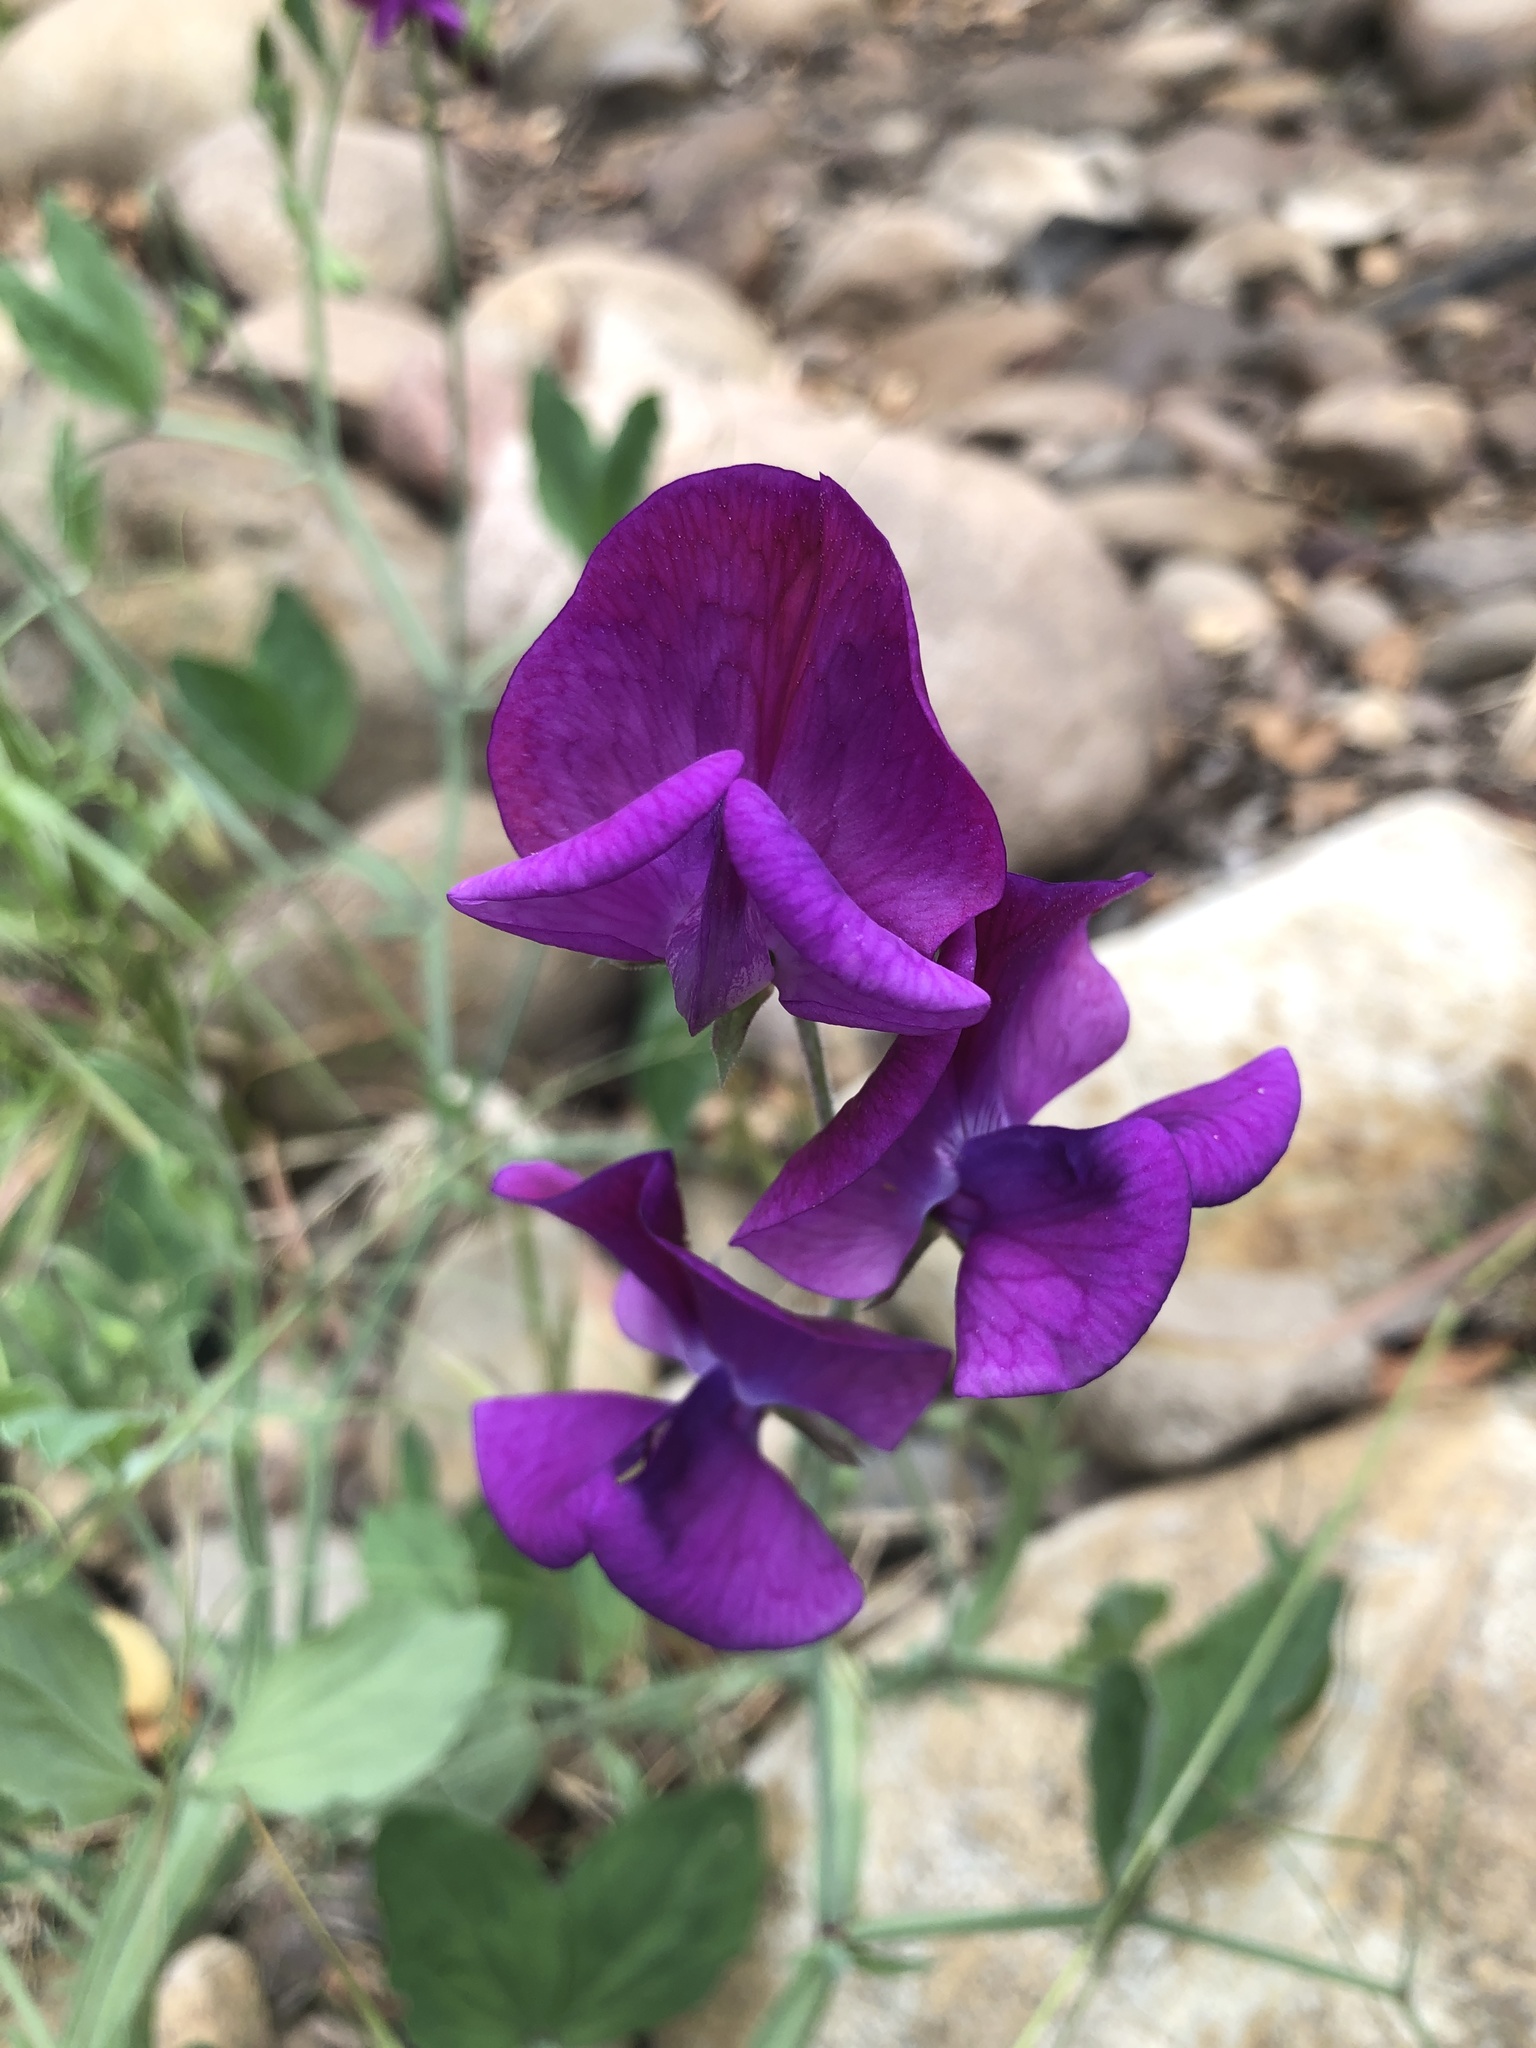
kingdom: Plantae
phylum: Tracheophyta
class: Magnoliopsida
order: Fabales
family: Fabaceae
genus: Lathyrus
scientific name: Lathyrus odoratus
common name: Sweet pea
